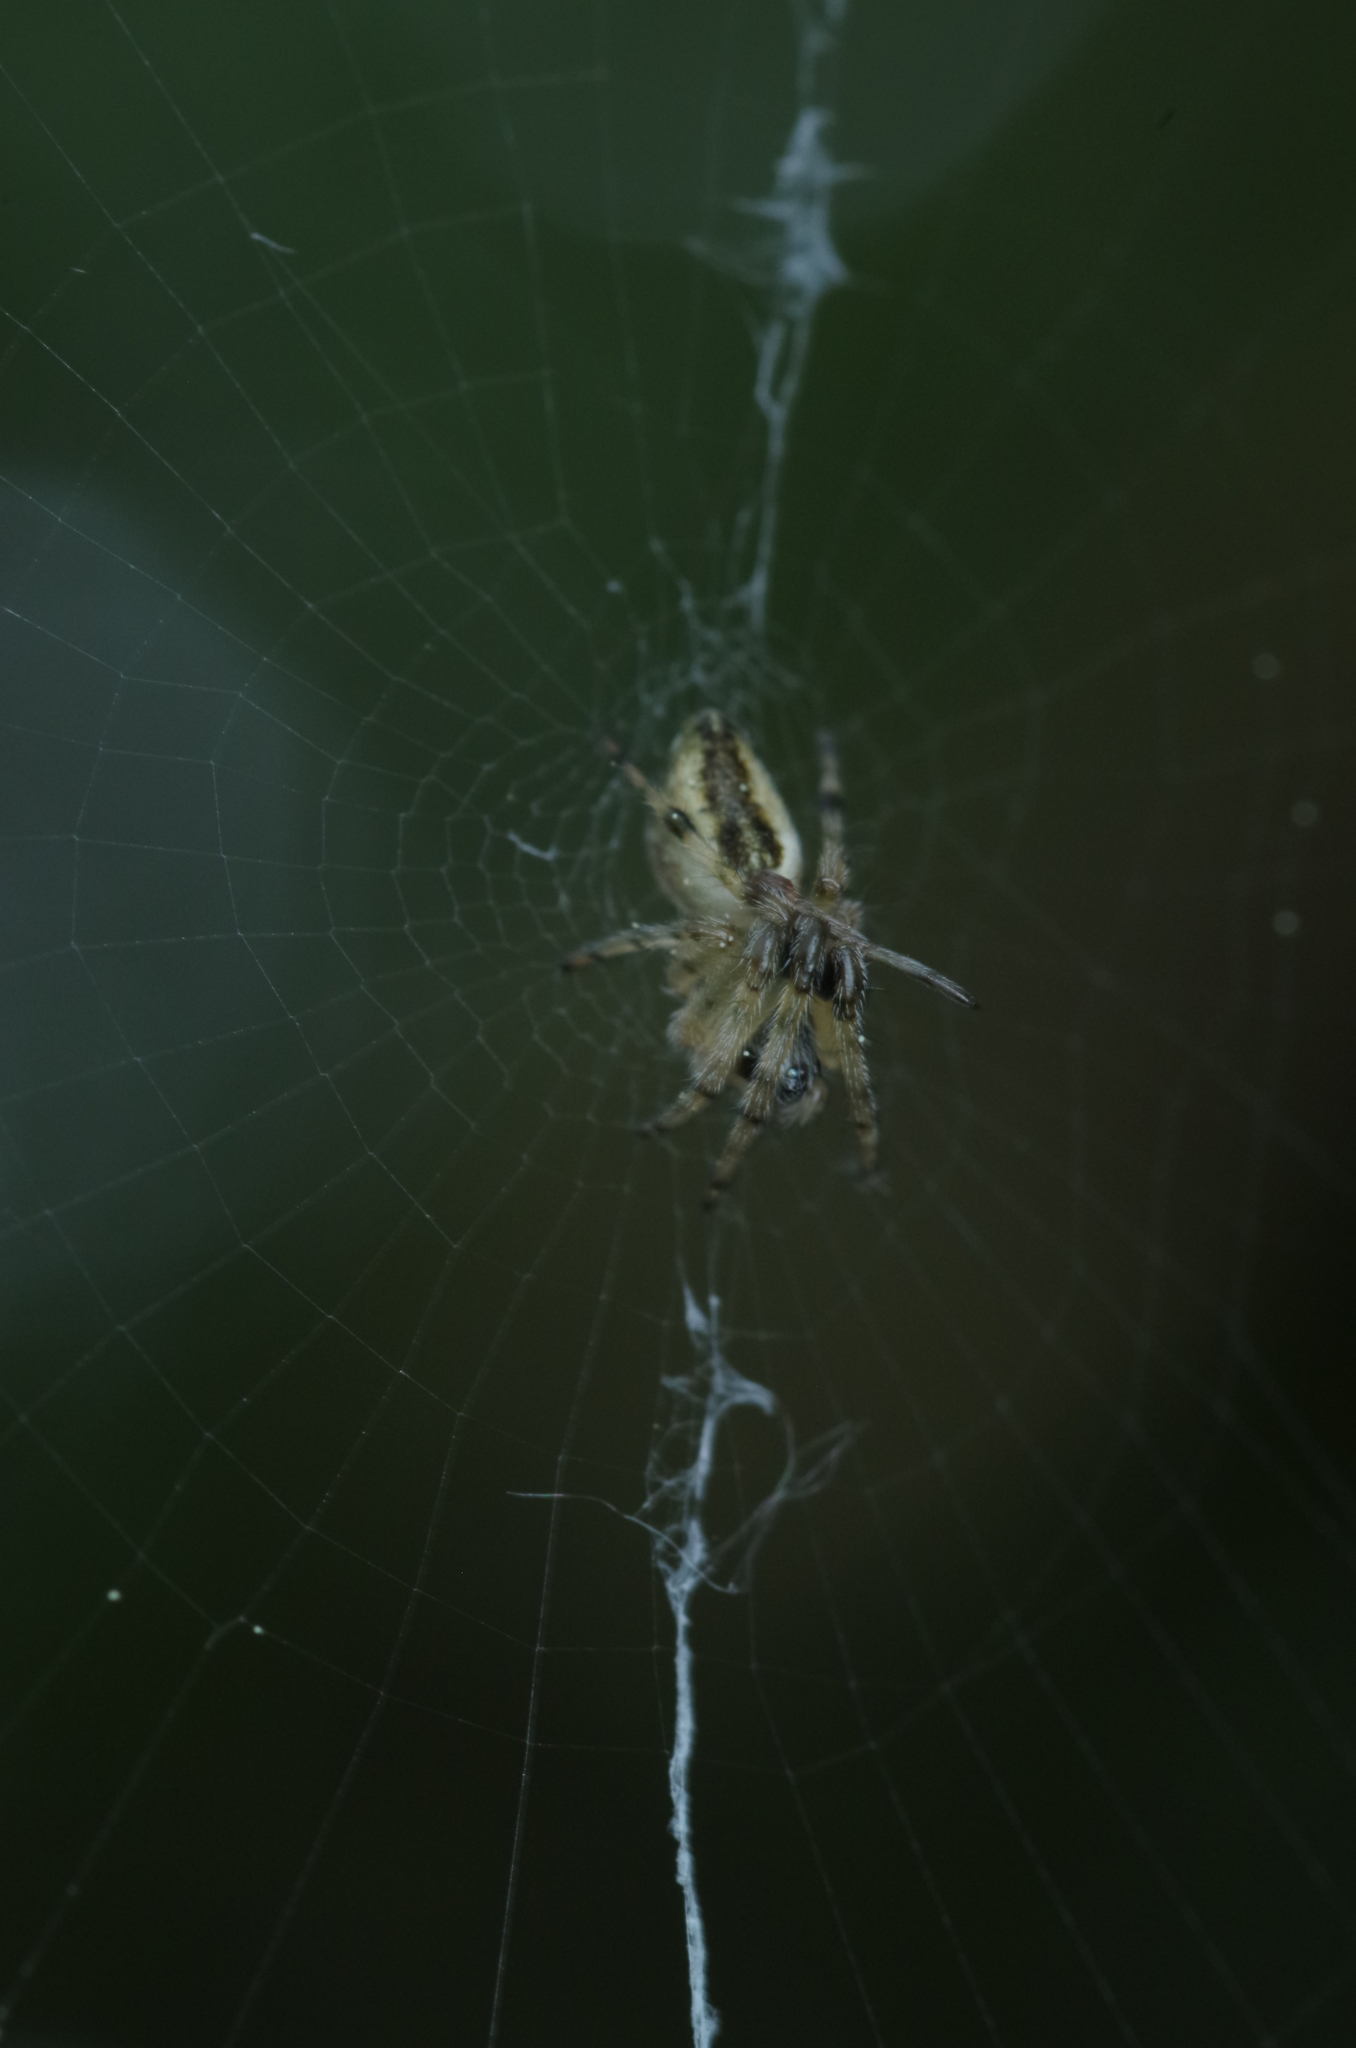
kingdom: Animalia
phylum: Arthropoda
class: Arachnida
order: Araneae
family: Araneidae
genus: Cyclosa
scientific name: Cyclosa conica
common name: Conical trashline orbweaver
